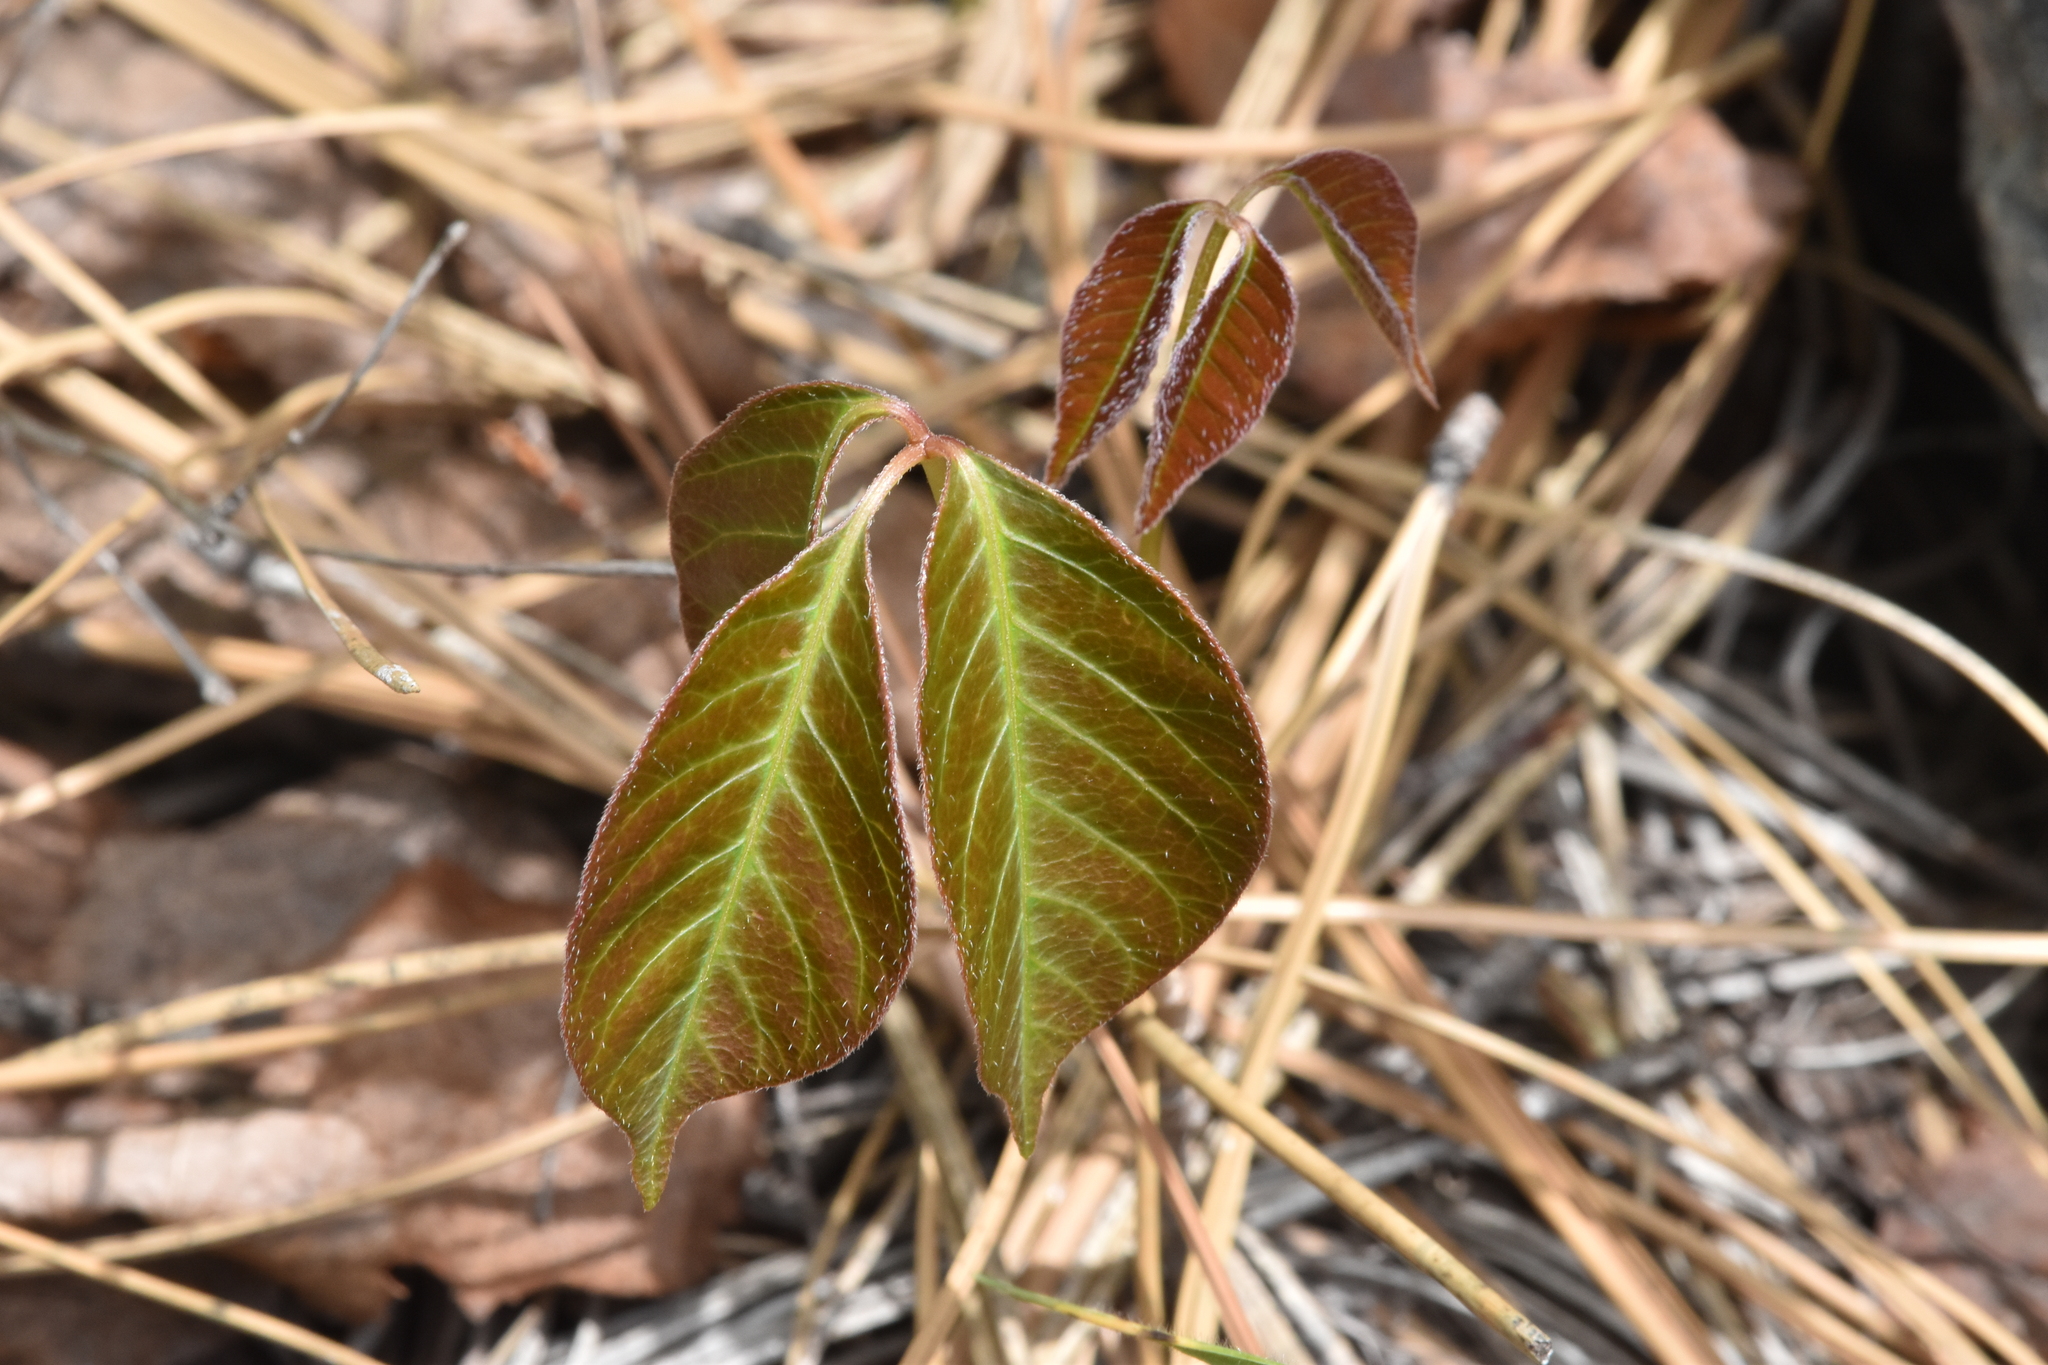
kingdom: Plantae
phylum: Tracheophyta
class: Magnoliopsida
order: Sapindales
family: Anacardiaceae
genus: Toxicodendron
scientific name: Toxicodendron rydbergii
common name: Rydberg's poison-ivy
